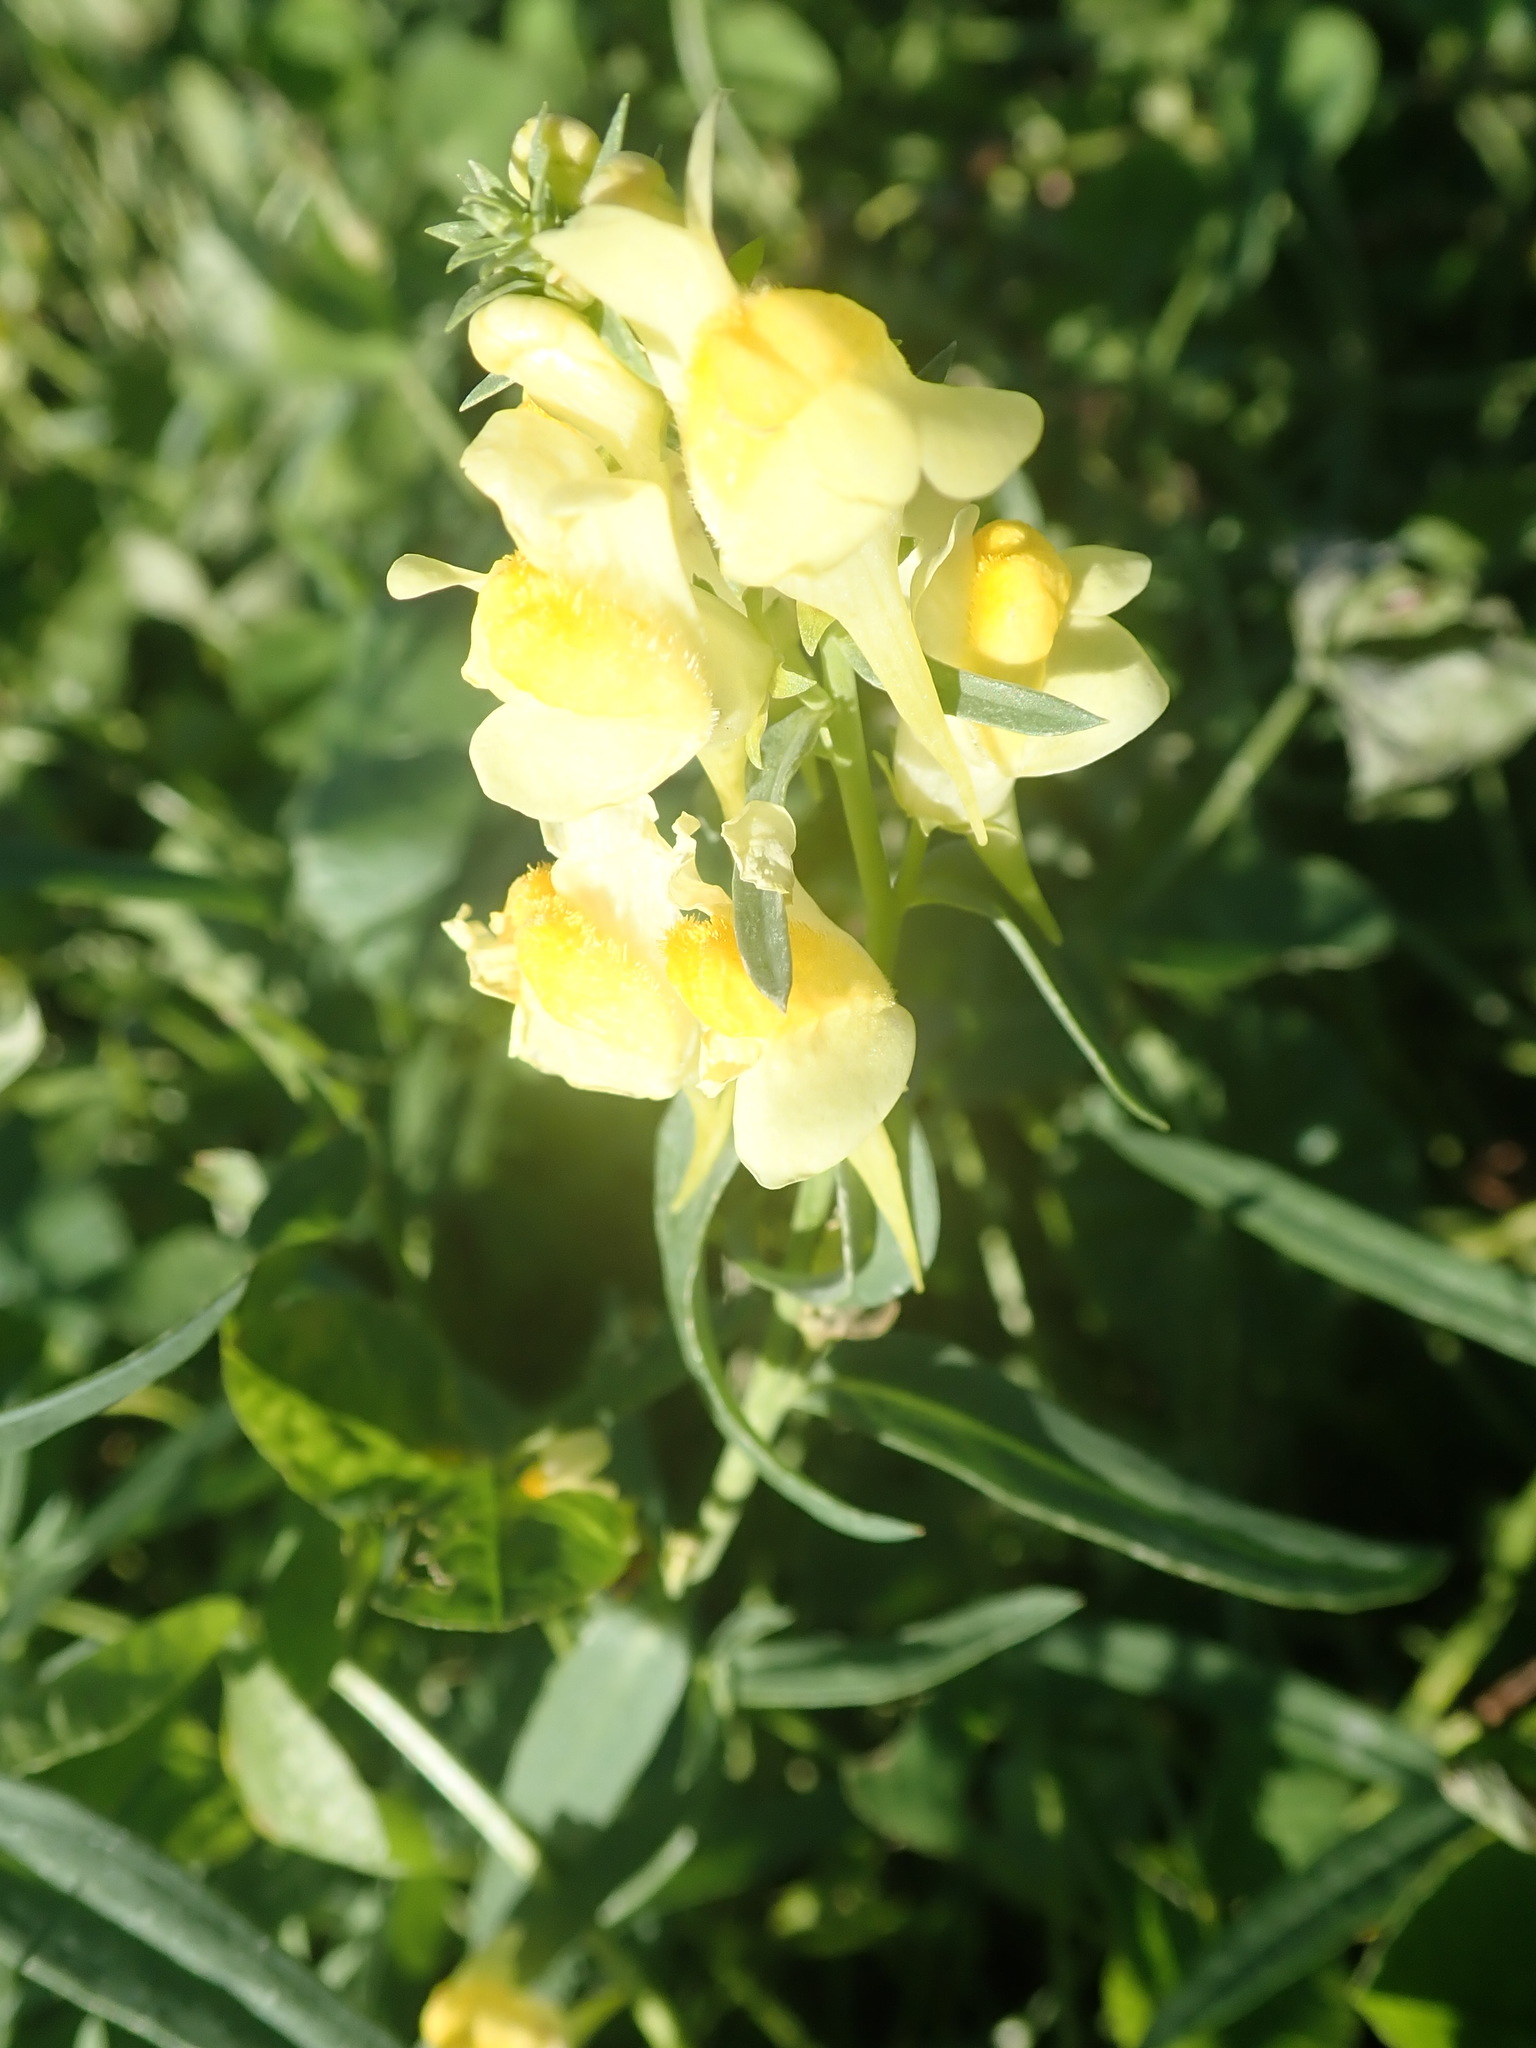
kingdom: Plantae
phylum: Tracheophyta
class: Magnoliopsida
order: Lamiales
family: Plantaginaceae
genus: Linaria
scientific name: Linaria vulgaris
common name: Butter and eggs
